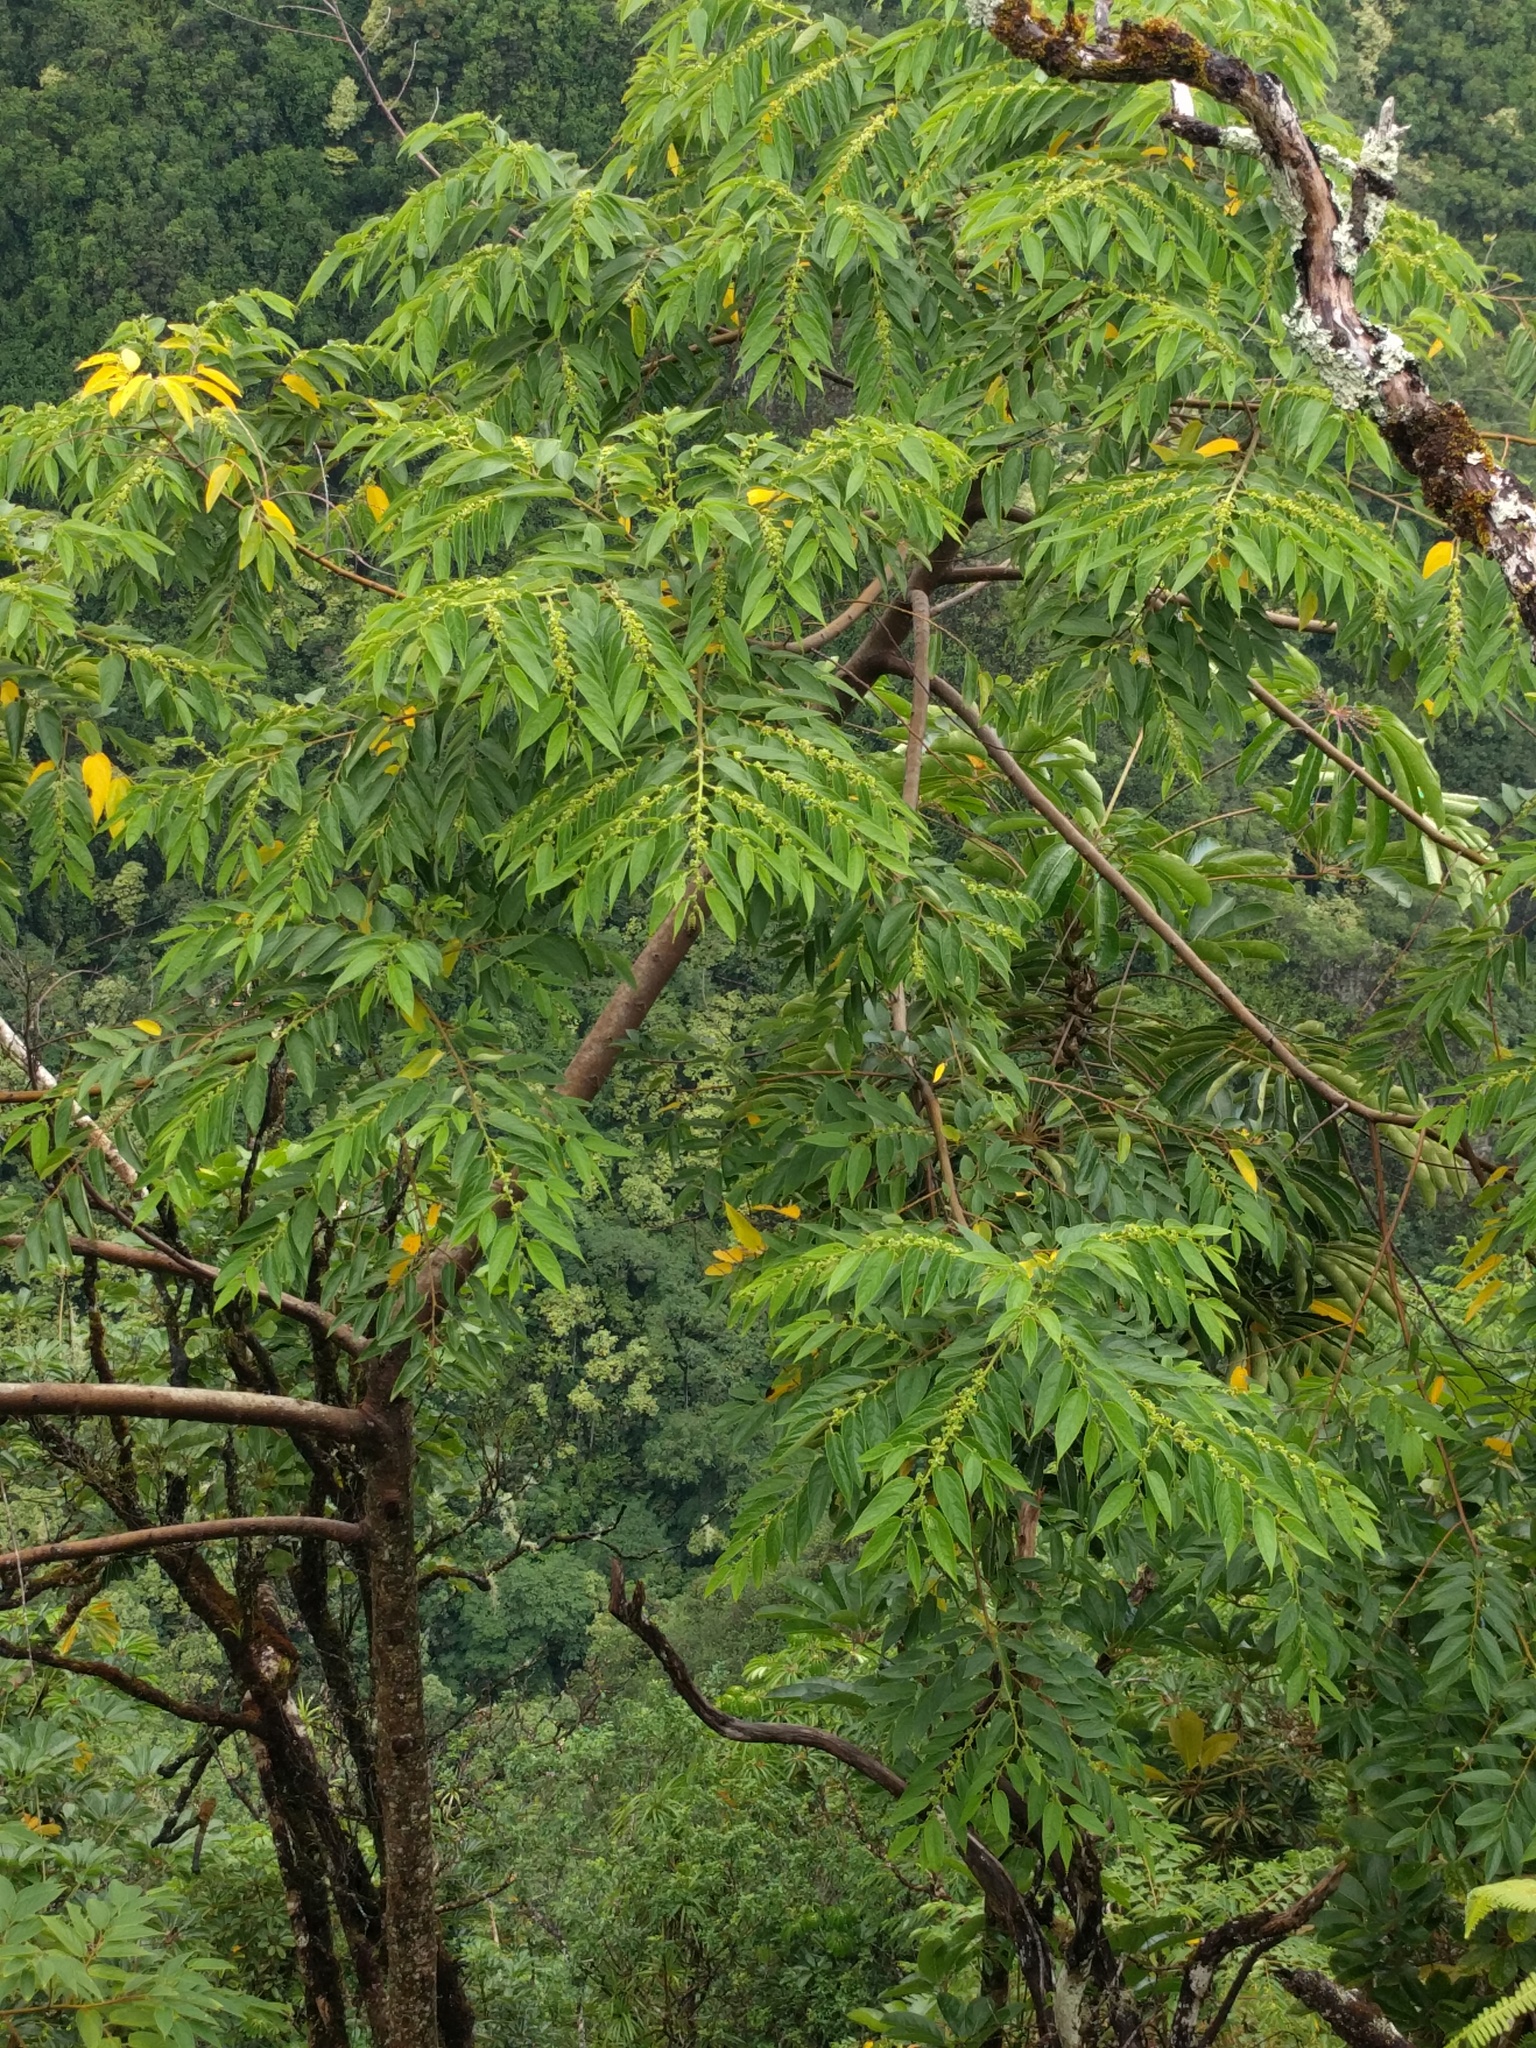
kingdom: Plantae
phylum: Tracheophyta
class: Magnoliopsida
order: Rosales
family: Cannabaceae
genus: Trema
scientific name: Trema orientale
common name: Indian charcoal tree
